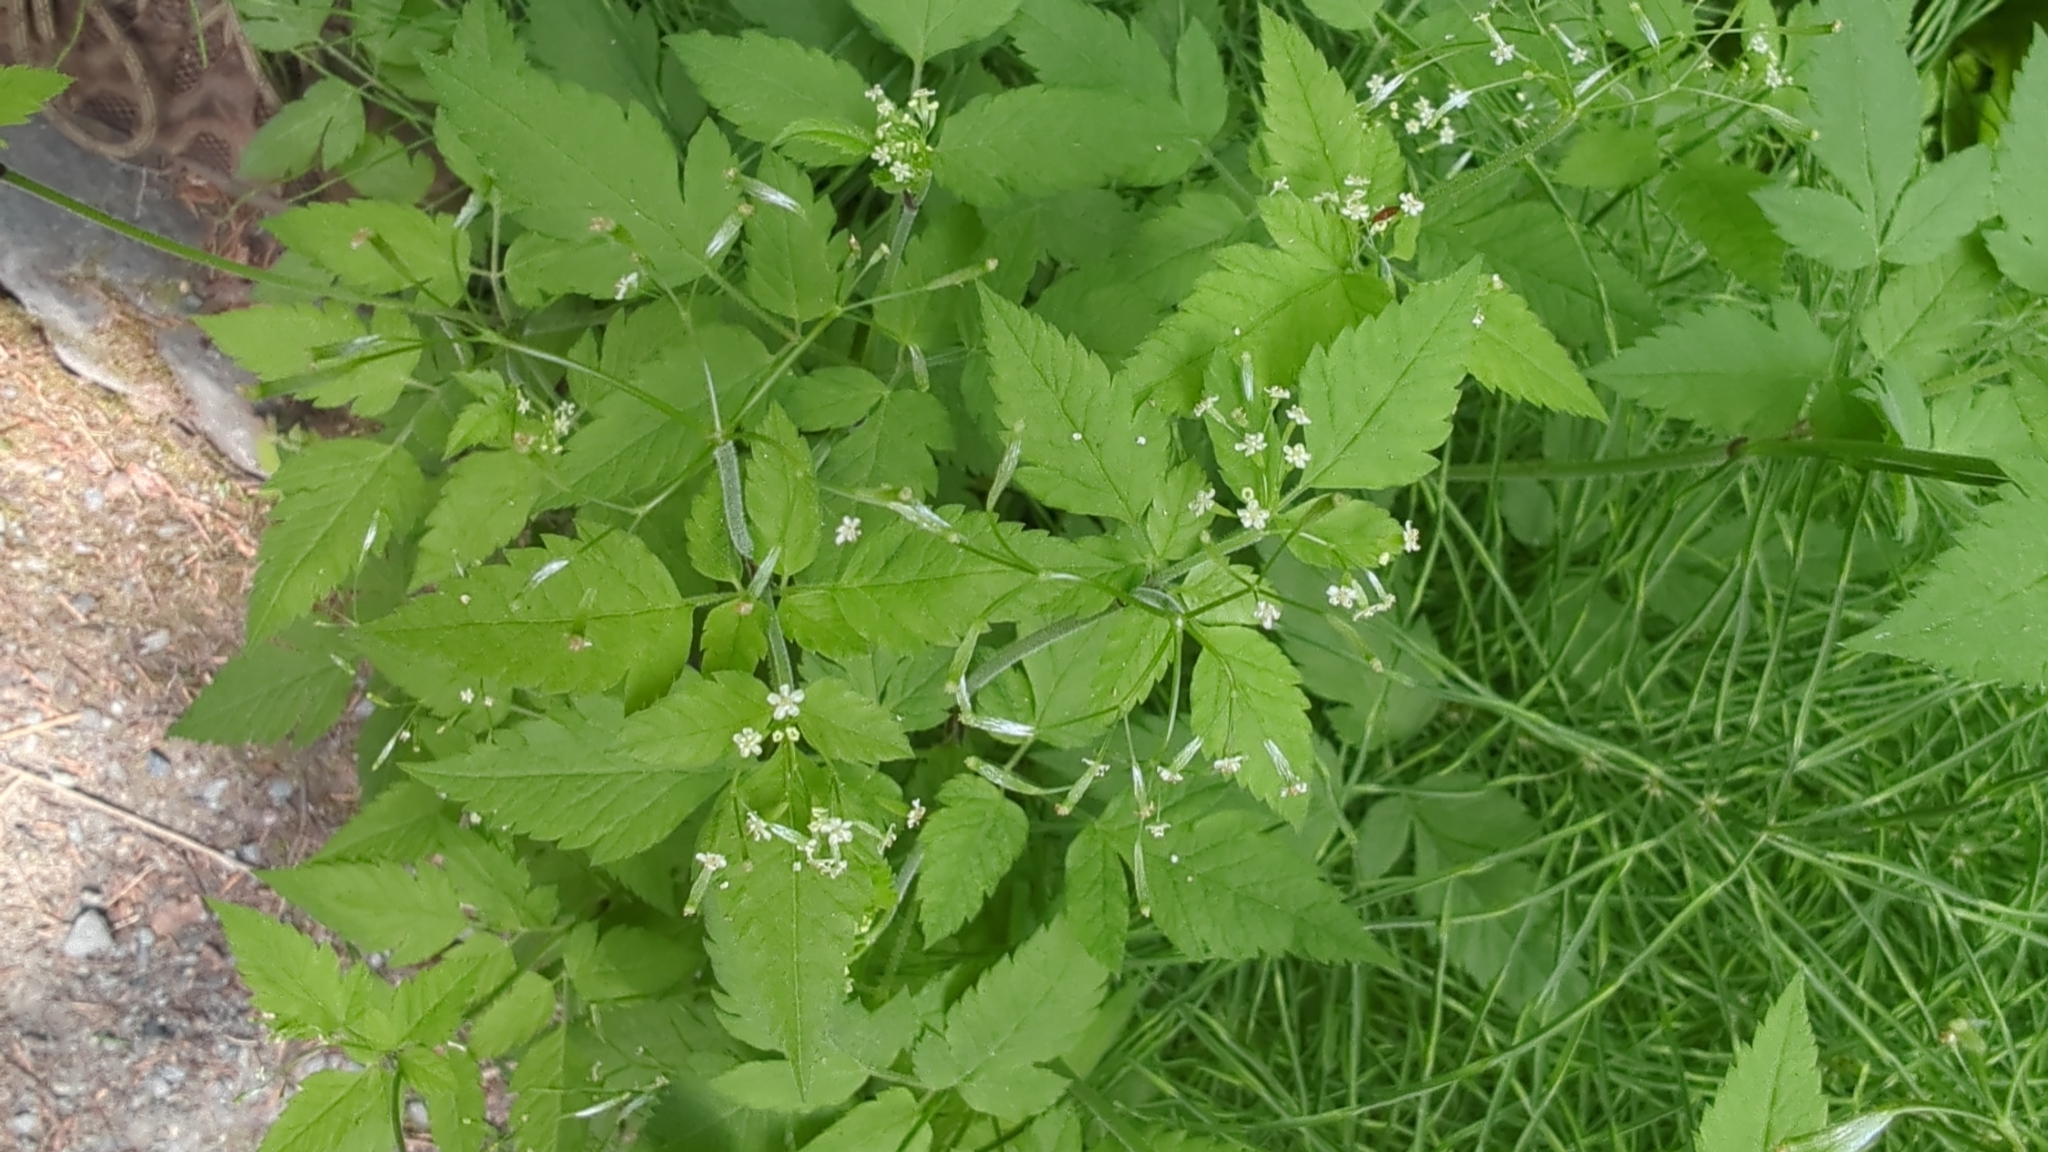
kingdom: Plantae
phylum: Tracheophyta
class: Magnoliopsida
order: Apiales
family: Apiaceae
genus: Osmorhiza
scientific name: Osmorhiza berteroi
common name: Mountain sweet cicely
